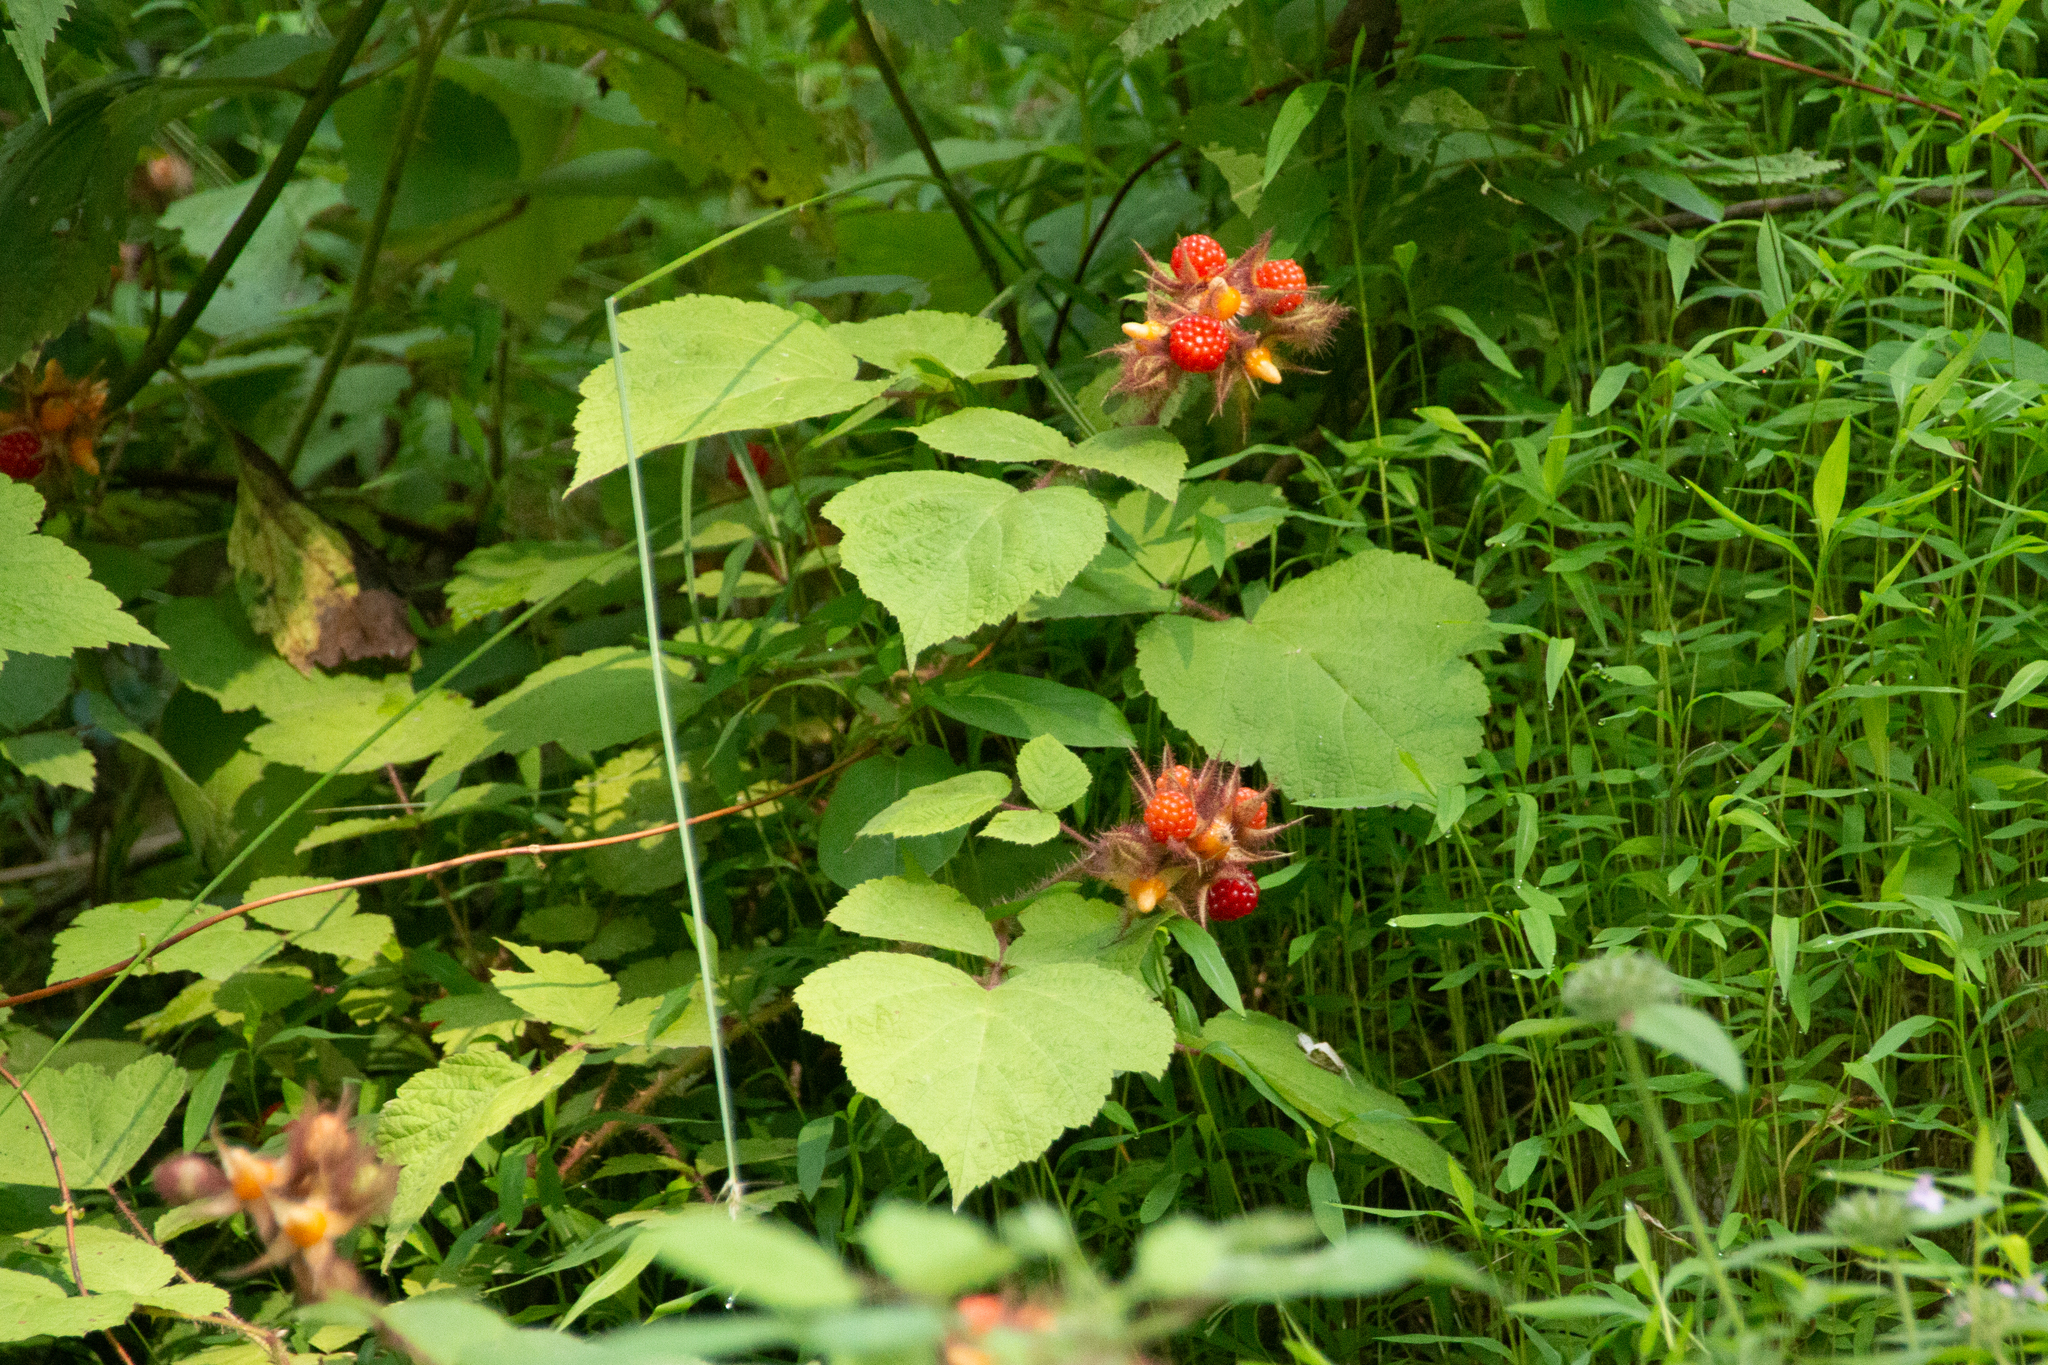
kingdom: Plantae
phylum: Tracheophyta
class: Magnoliopsida
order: Rosales
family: Rosaceae
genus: Rubus
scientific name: Rubus phoenicolasius
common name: Japanese wineberry
